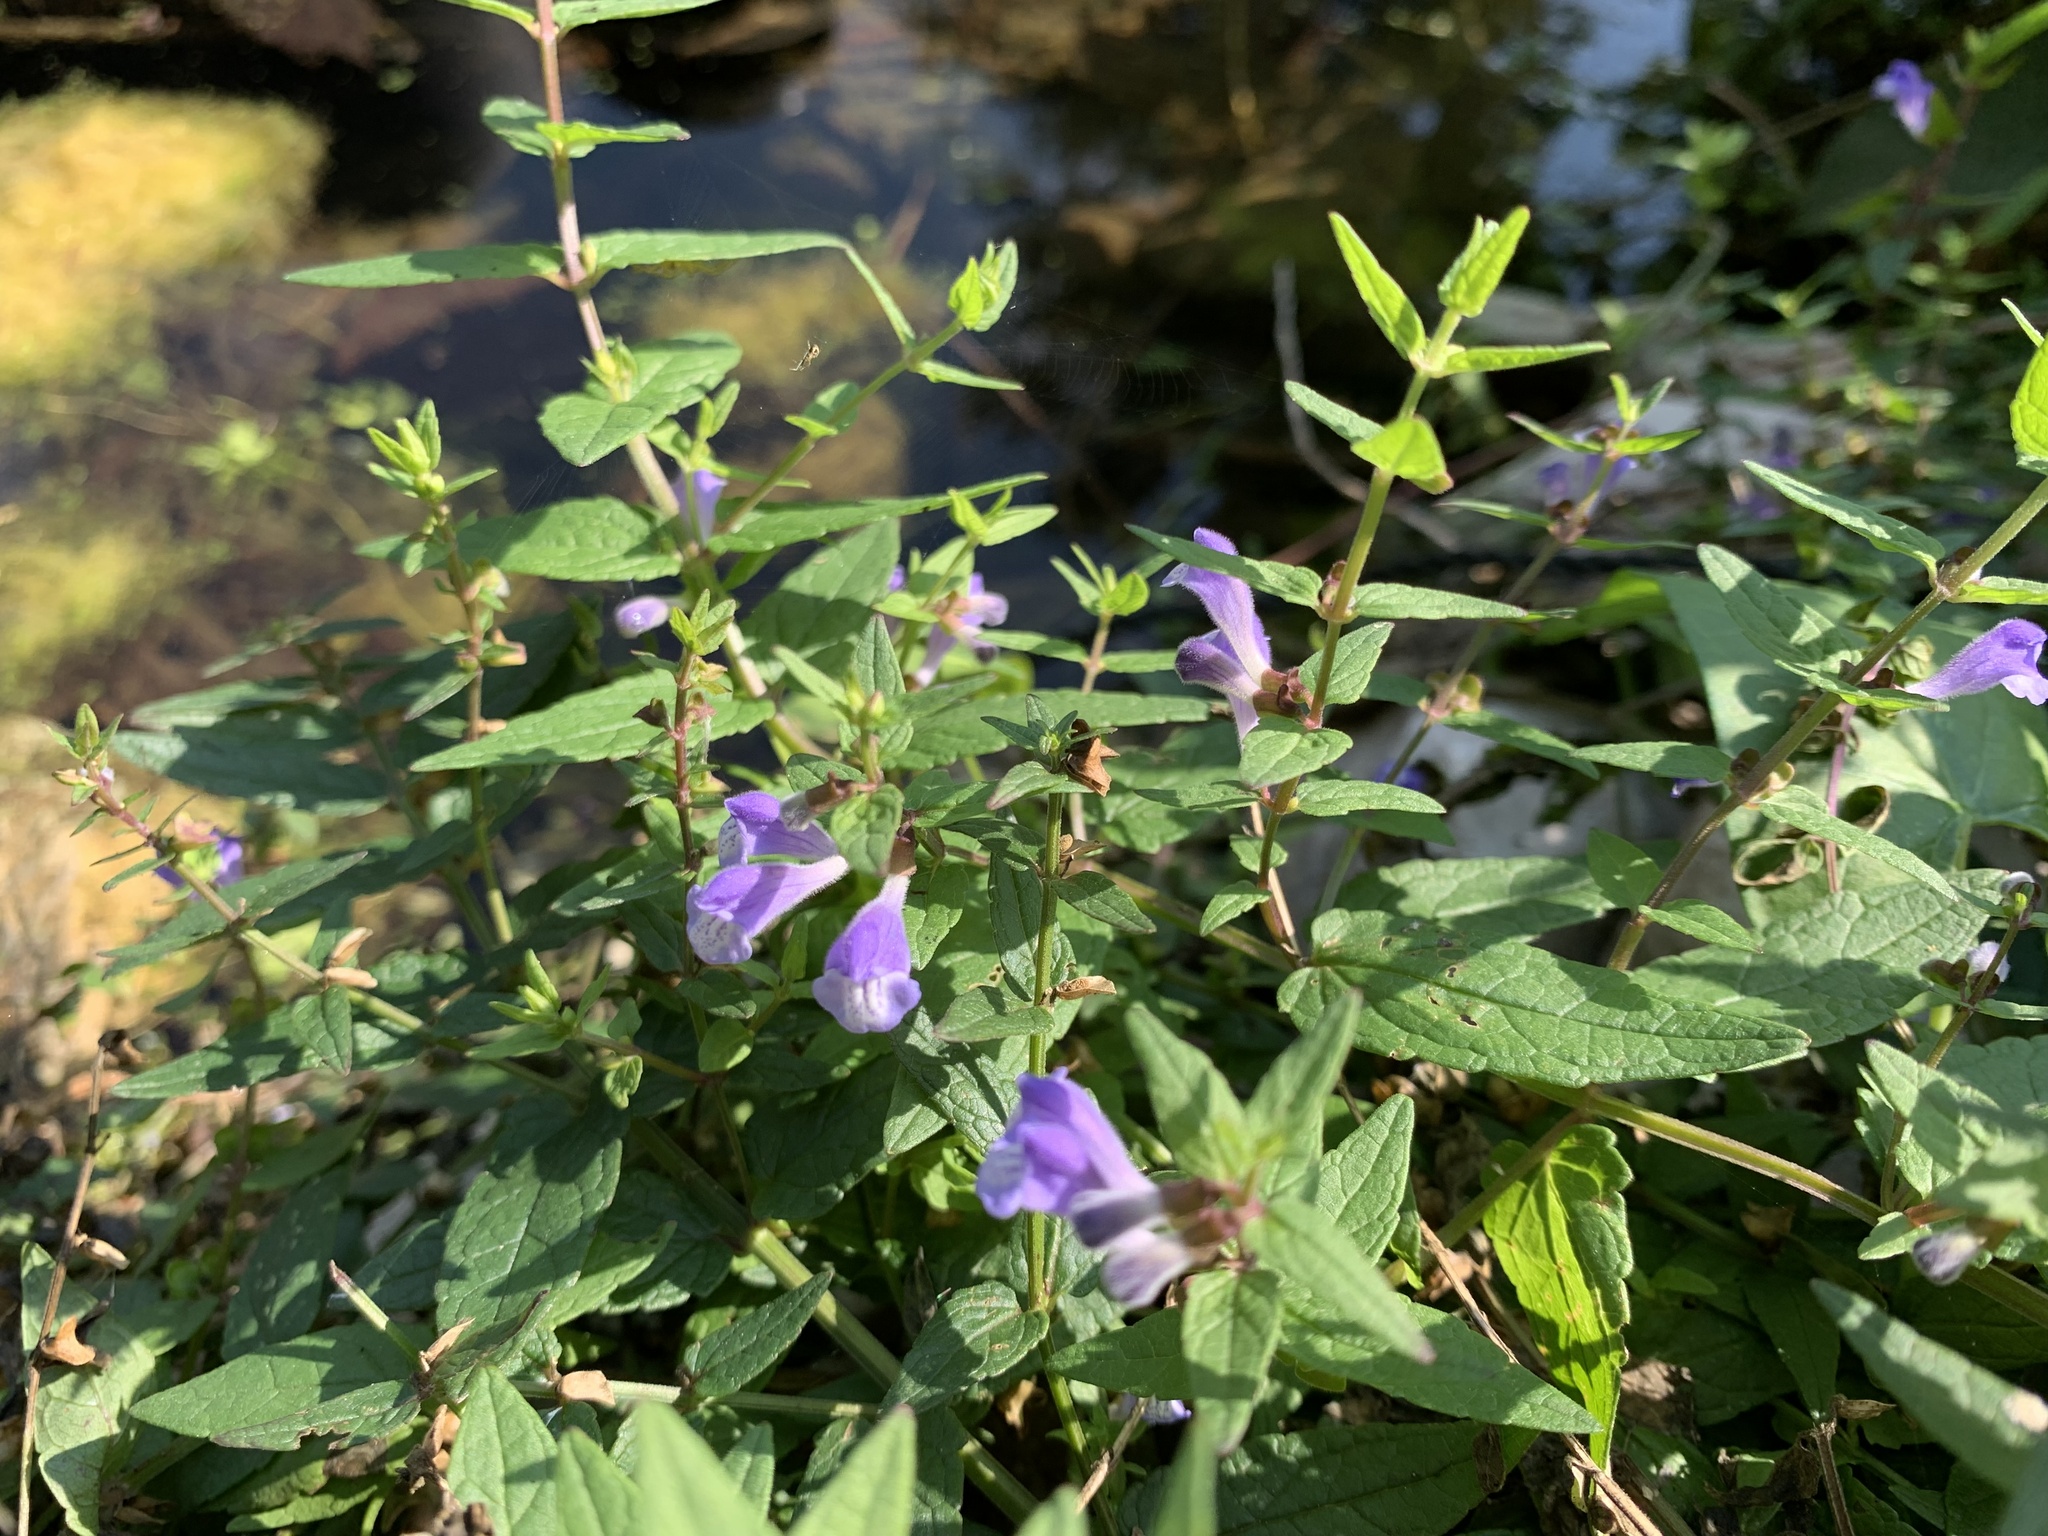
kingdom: Plantae
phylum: Tracheophyta
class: Magnoliopsida
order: Lamiales
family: Lamiaceae
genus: Scutellaria
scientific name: Scutellaria galericulata
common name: Skullcap
